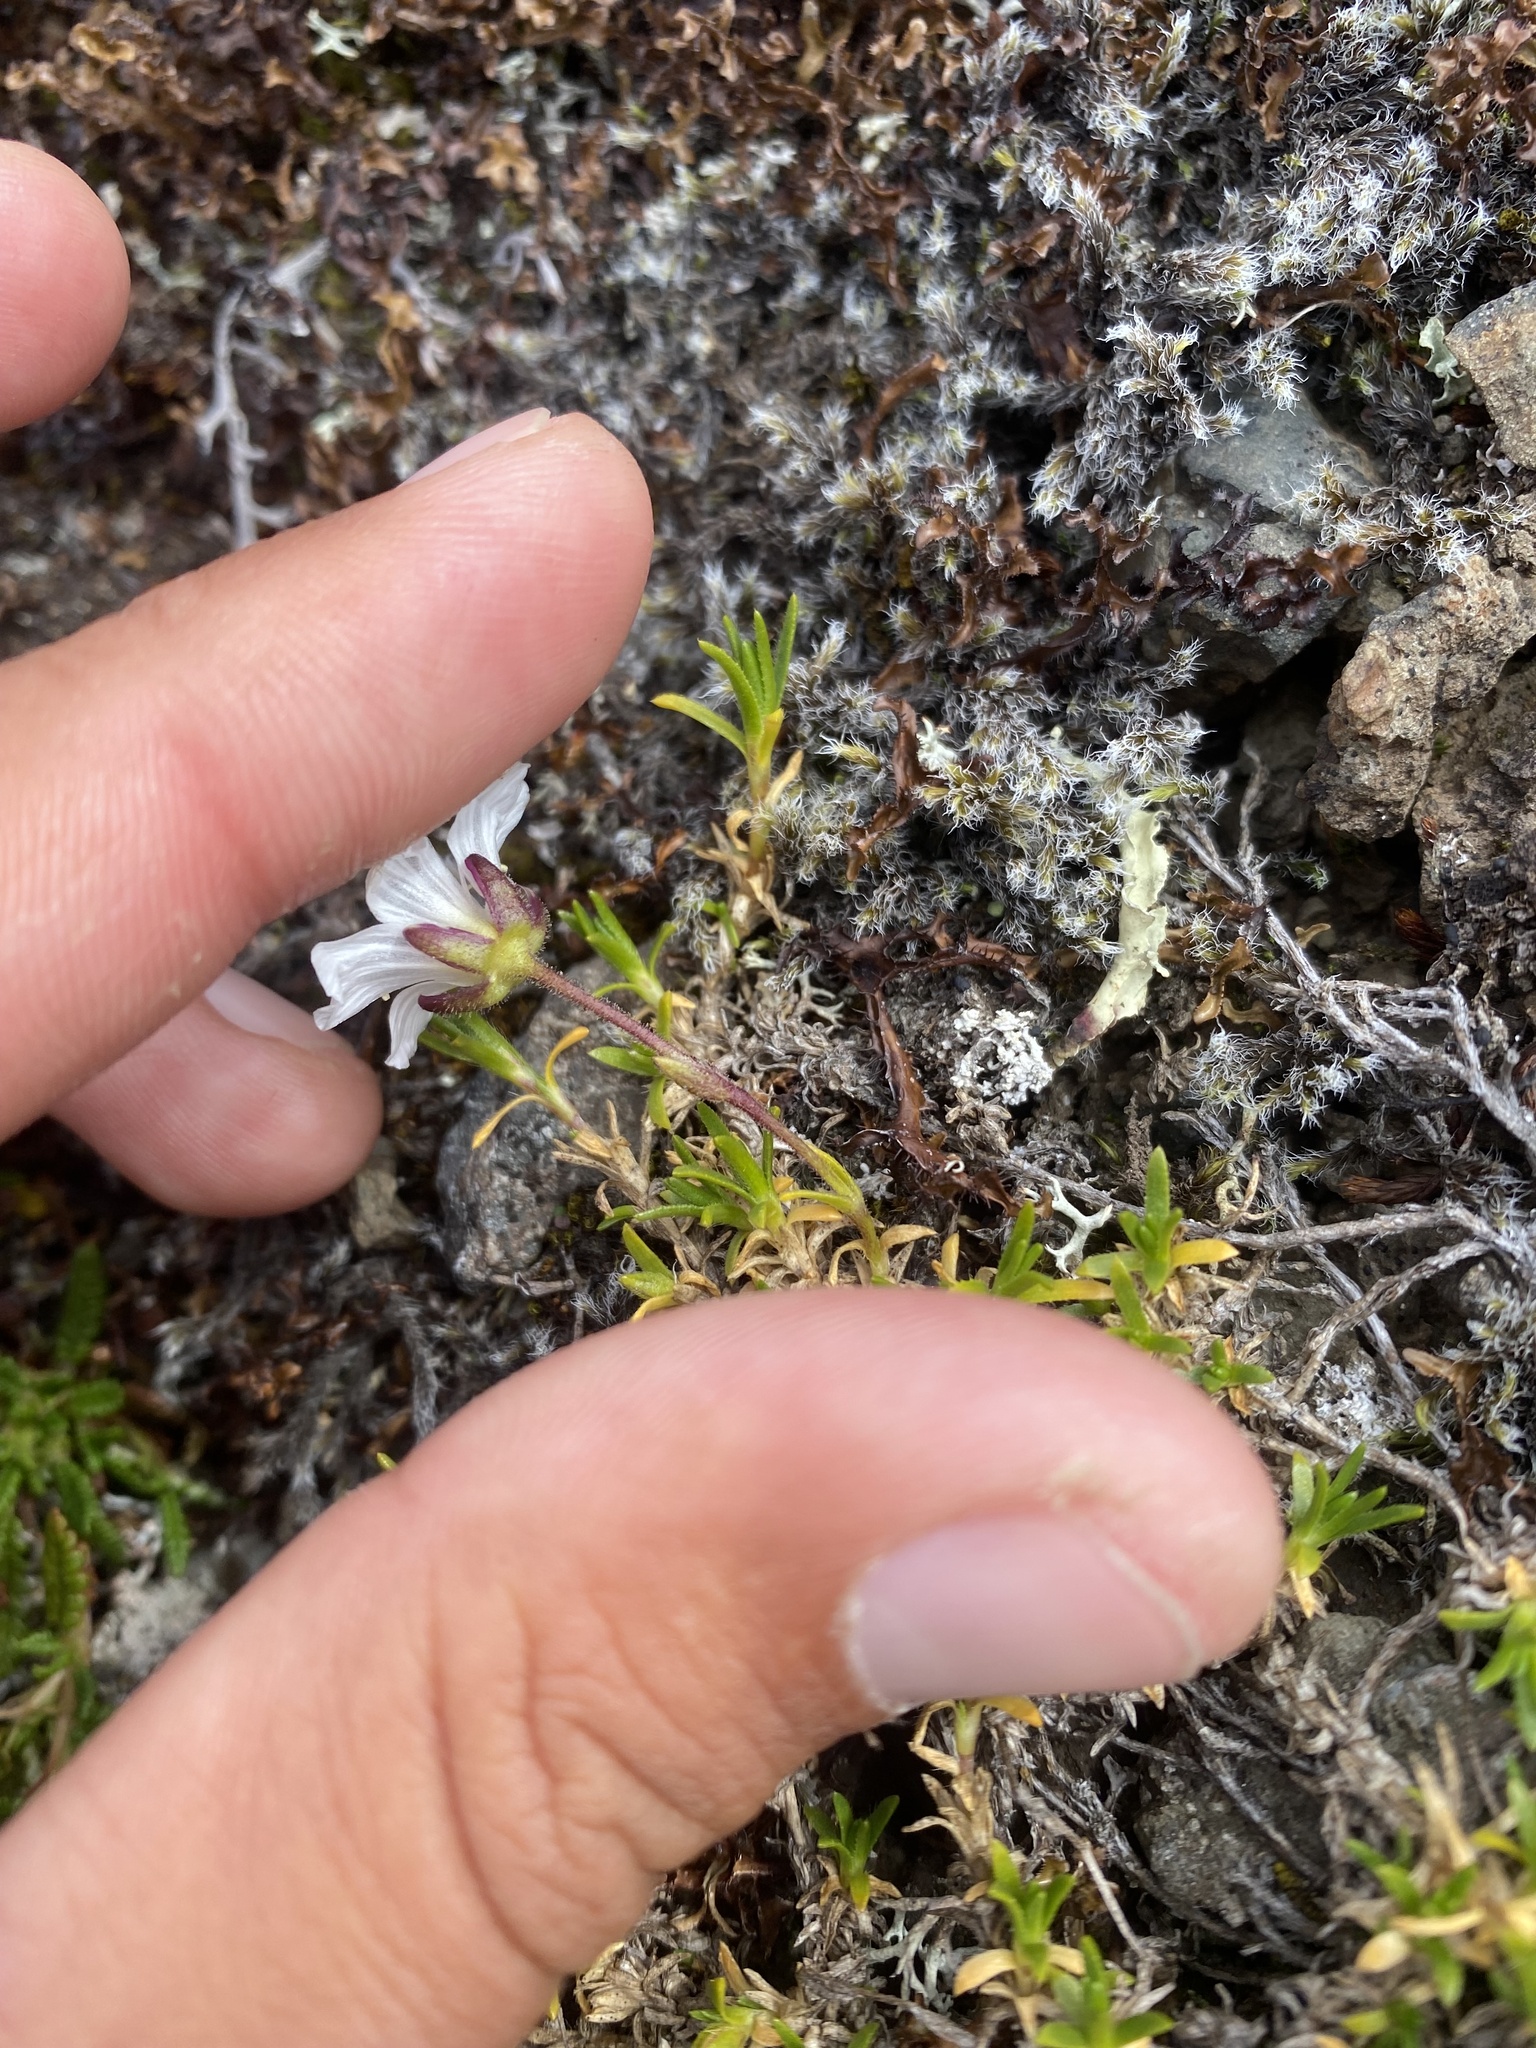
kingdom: Plantae
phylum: Tracheophyta
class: Magnoliopsida
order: Caryophyllales
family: Caryophyllaceae
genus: Cherleria
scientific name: Cherleria arctica
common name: Arctic sandwort
